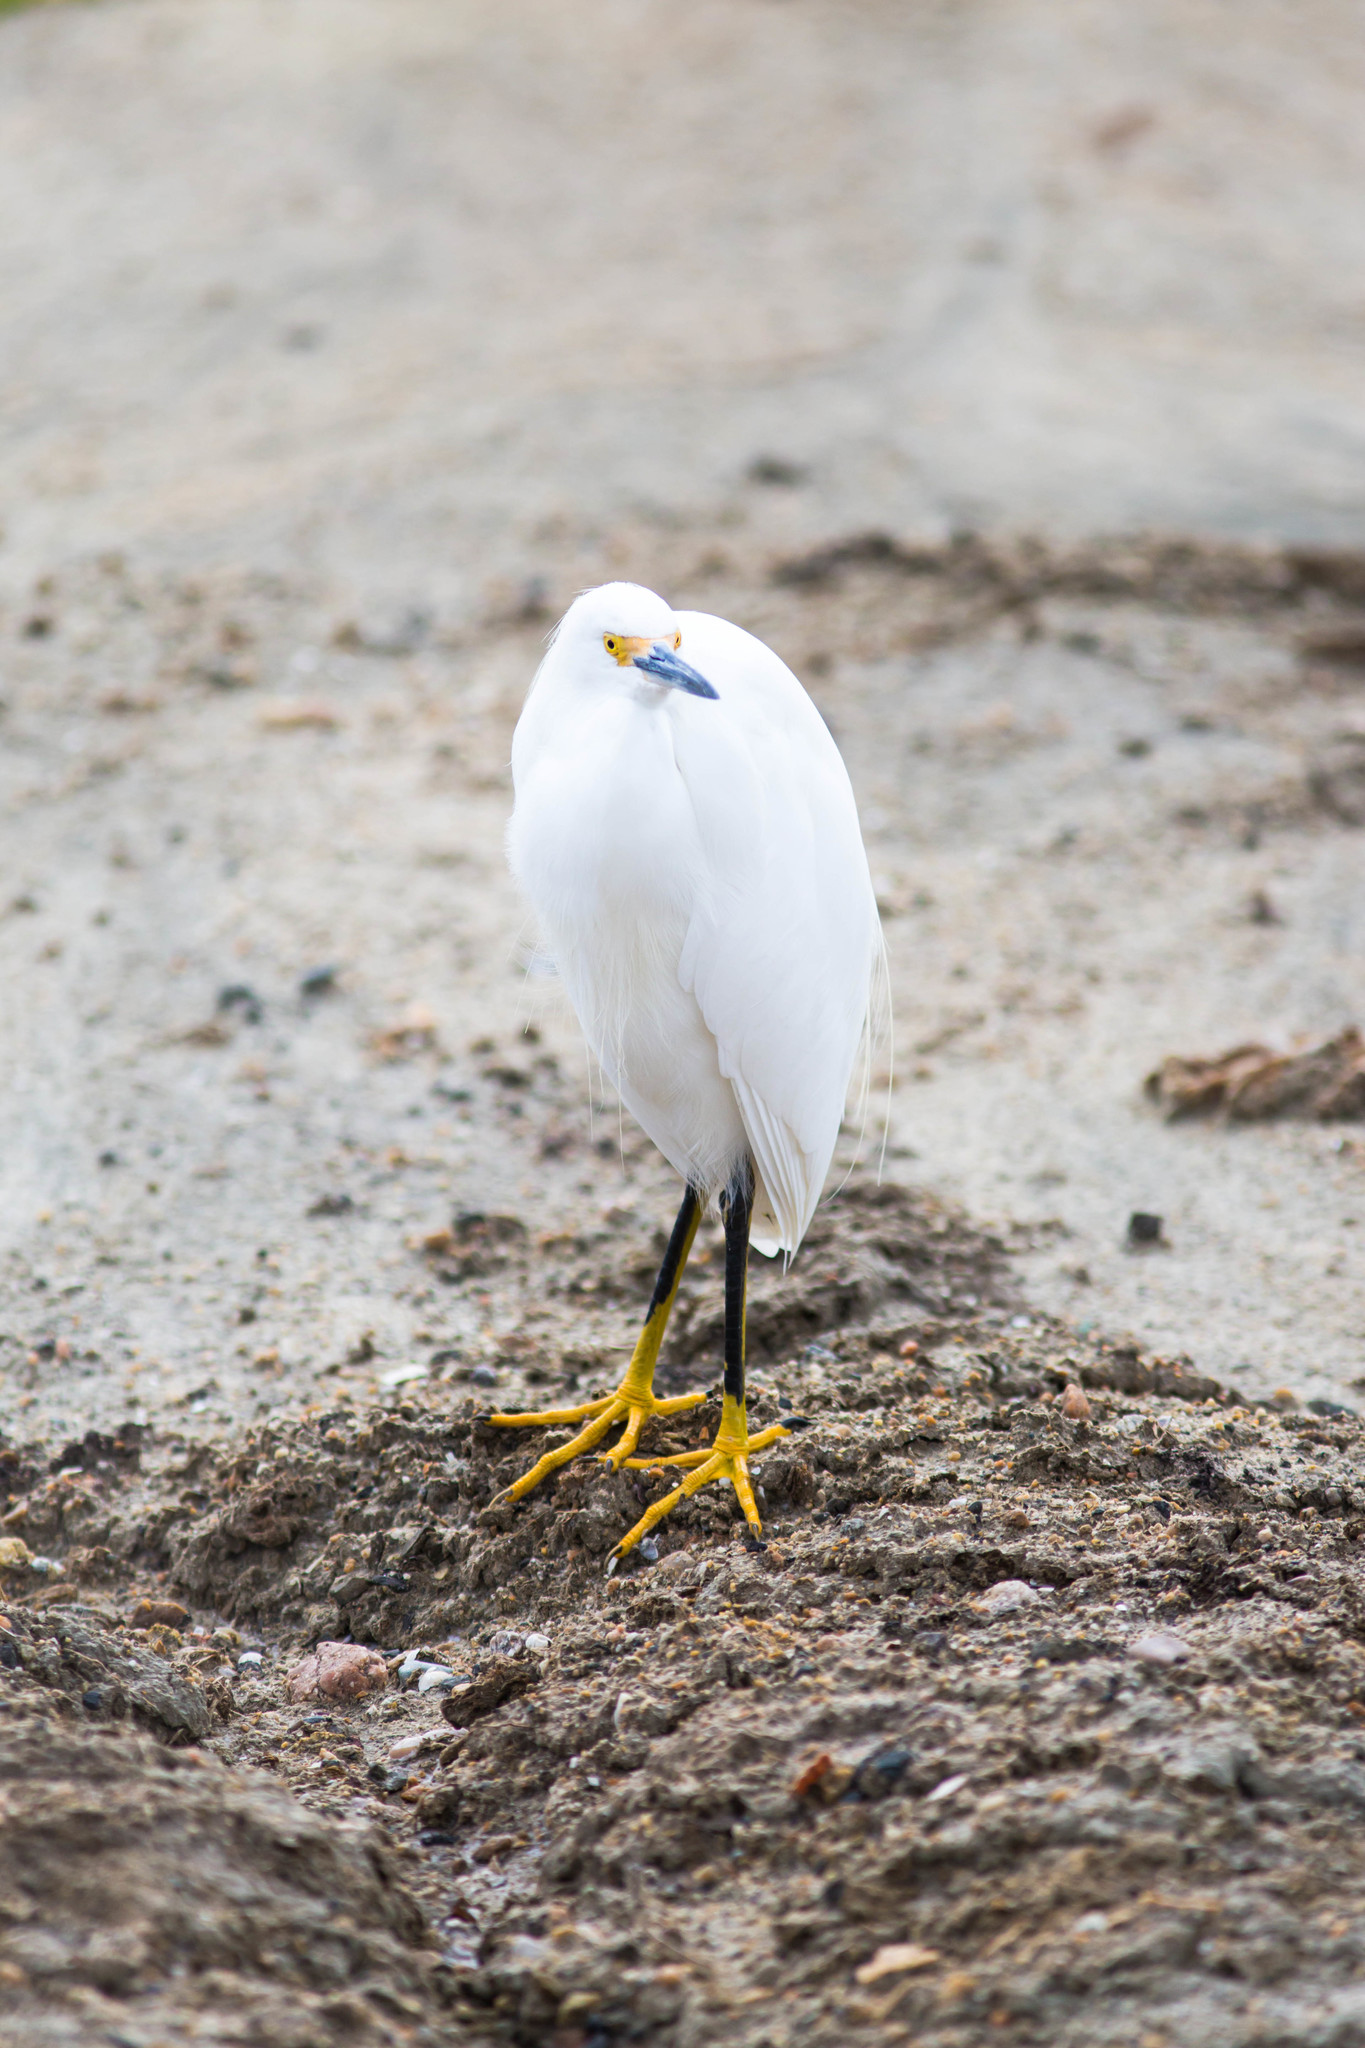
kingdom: Animalia
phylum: Chordata
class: Aves
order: Pelecaniformes
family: Ardeidae
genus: Egretta
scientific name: Egretta thula
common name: Snowy egret
